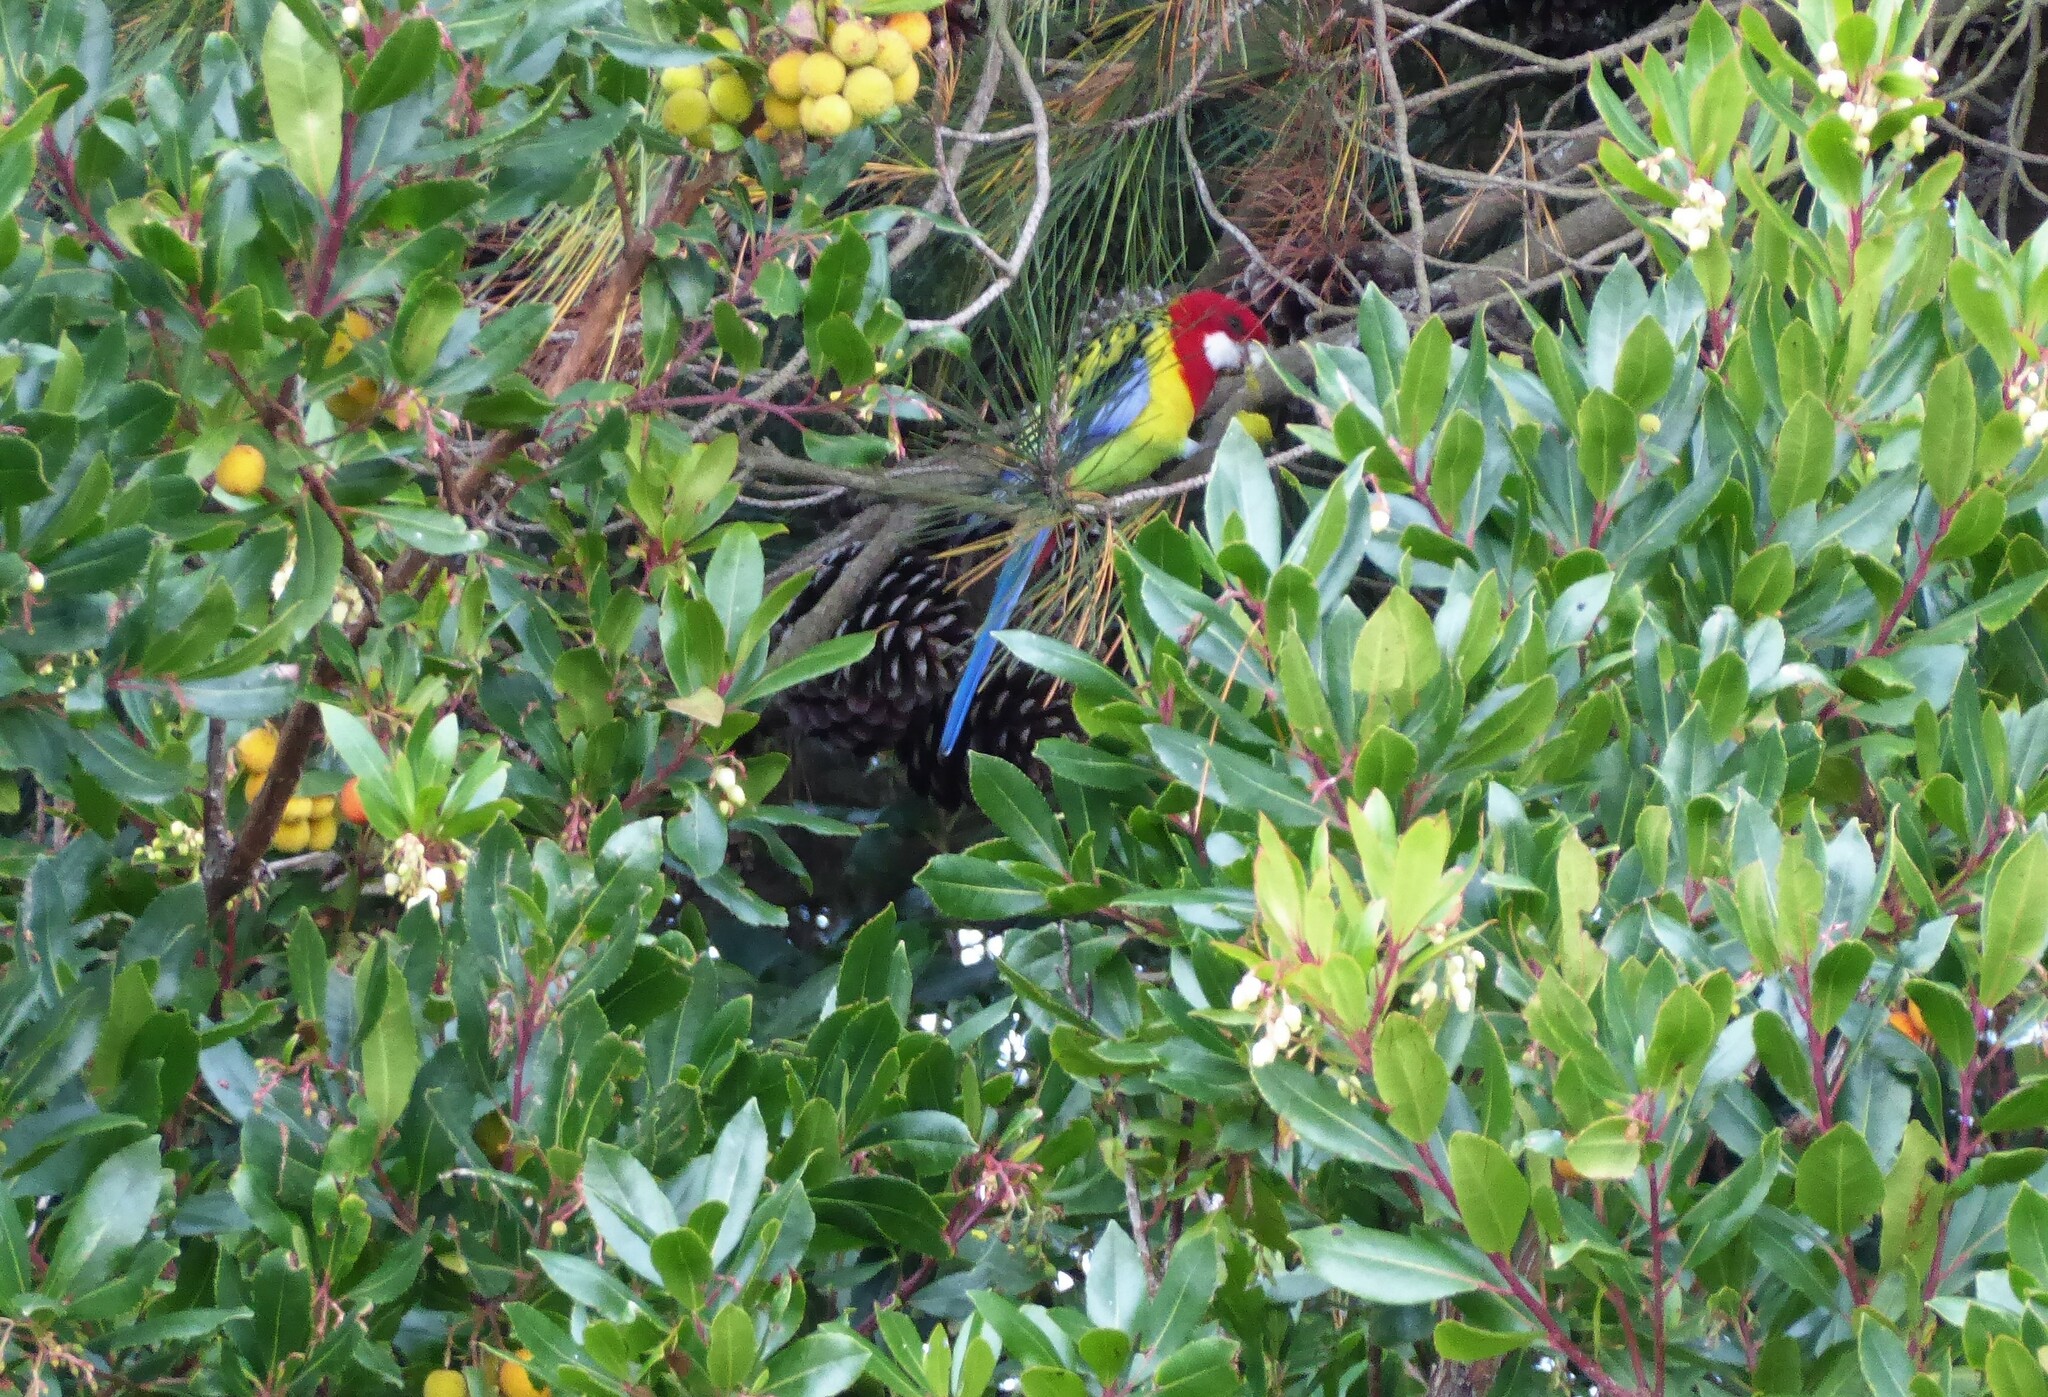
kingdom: Animalia
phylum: Chordata
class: Aves
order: Psittaciformes
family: Psittacidae
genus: Platycercus
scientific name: Platycercus eximius
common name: Eastern rosella
